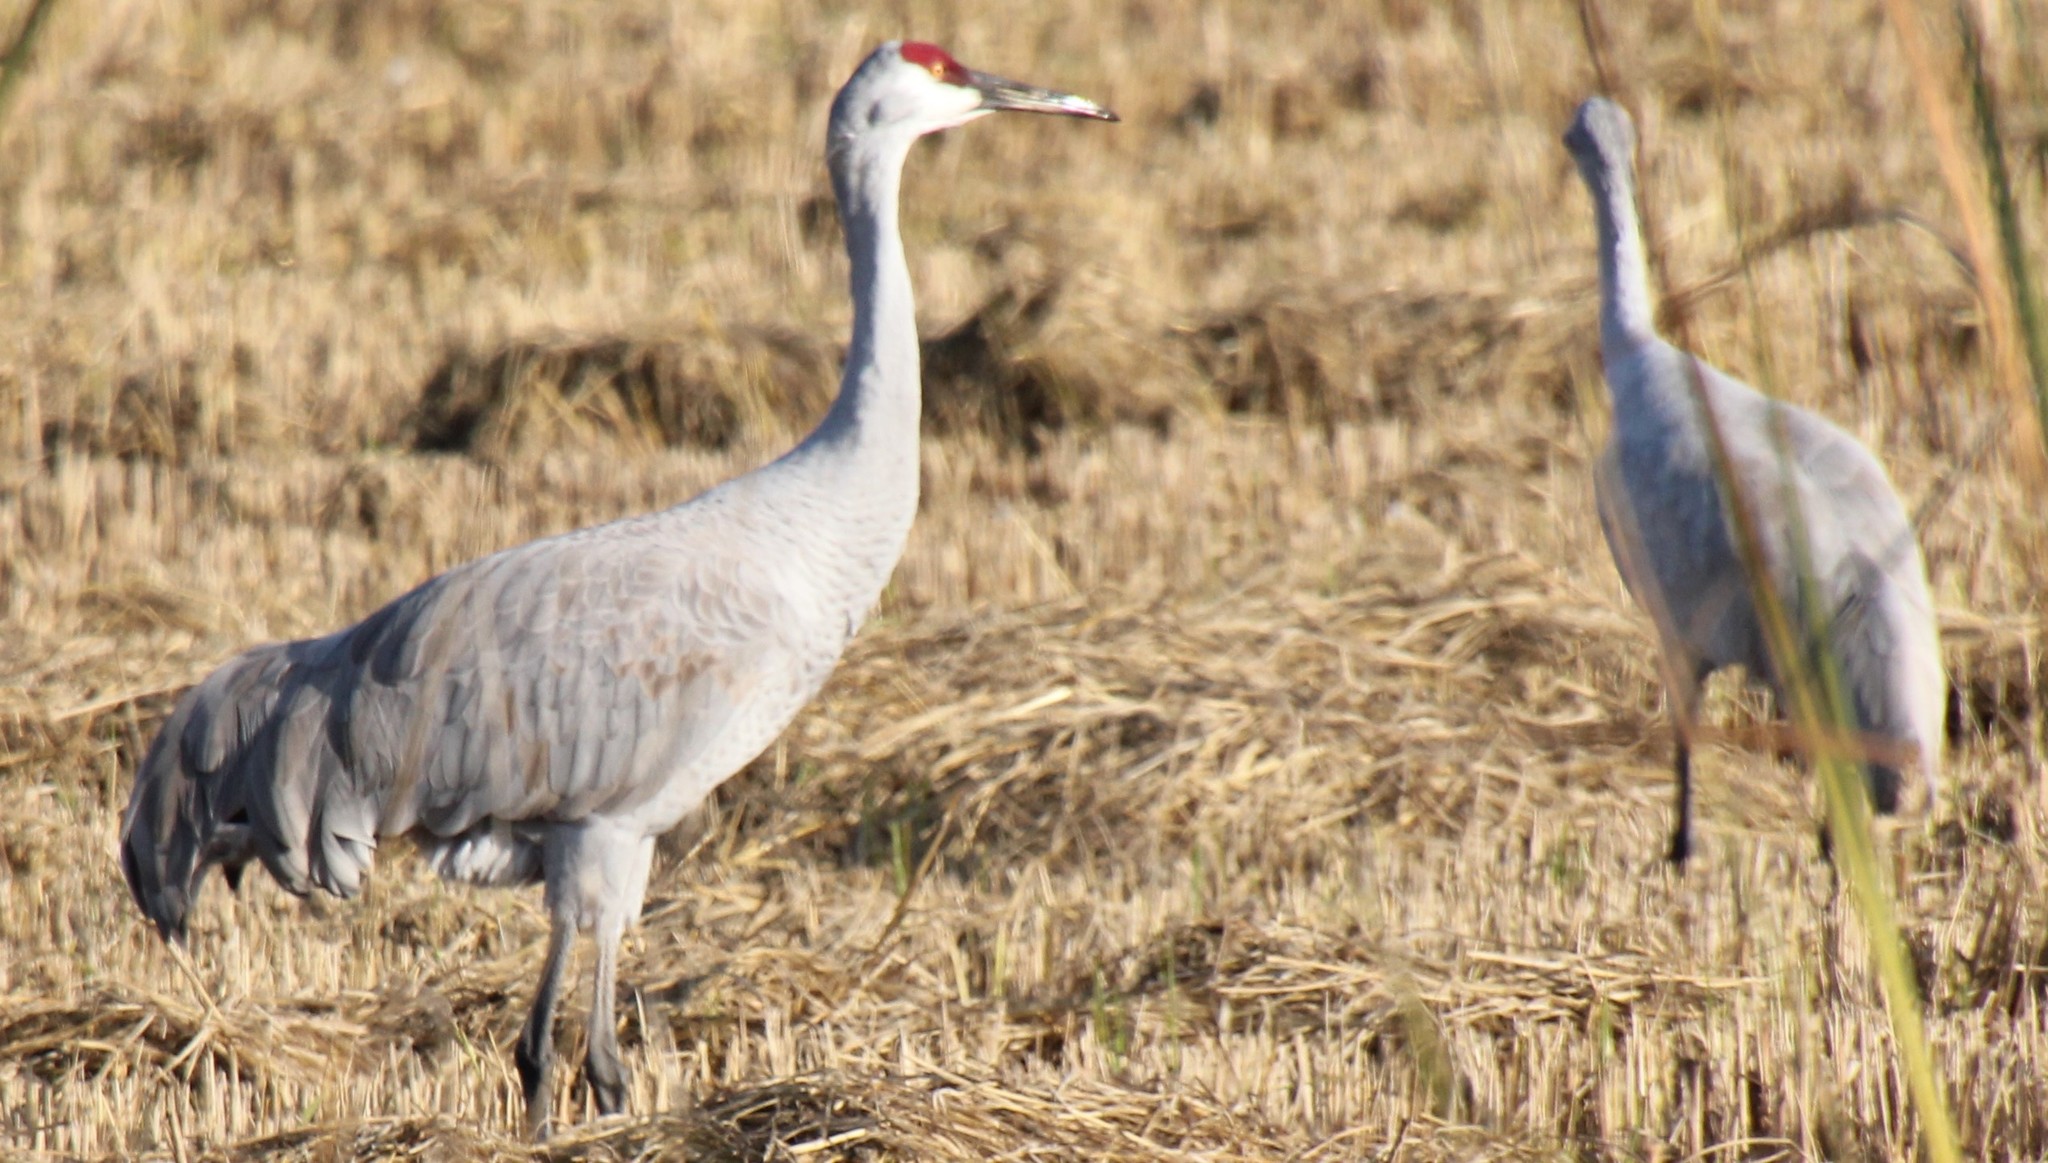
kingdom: Animalia
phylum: Chordata
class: Aves
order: Gruiformes
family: Gruidae
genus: Grus
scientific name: Grus canadensis
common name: Sandhill crane
